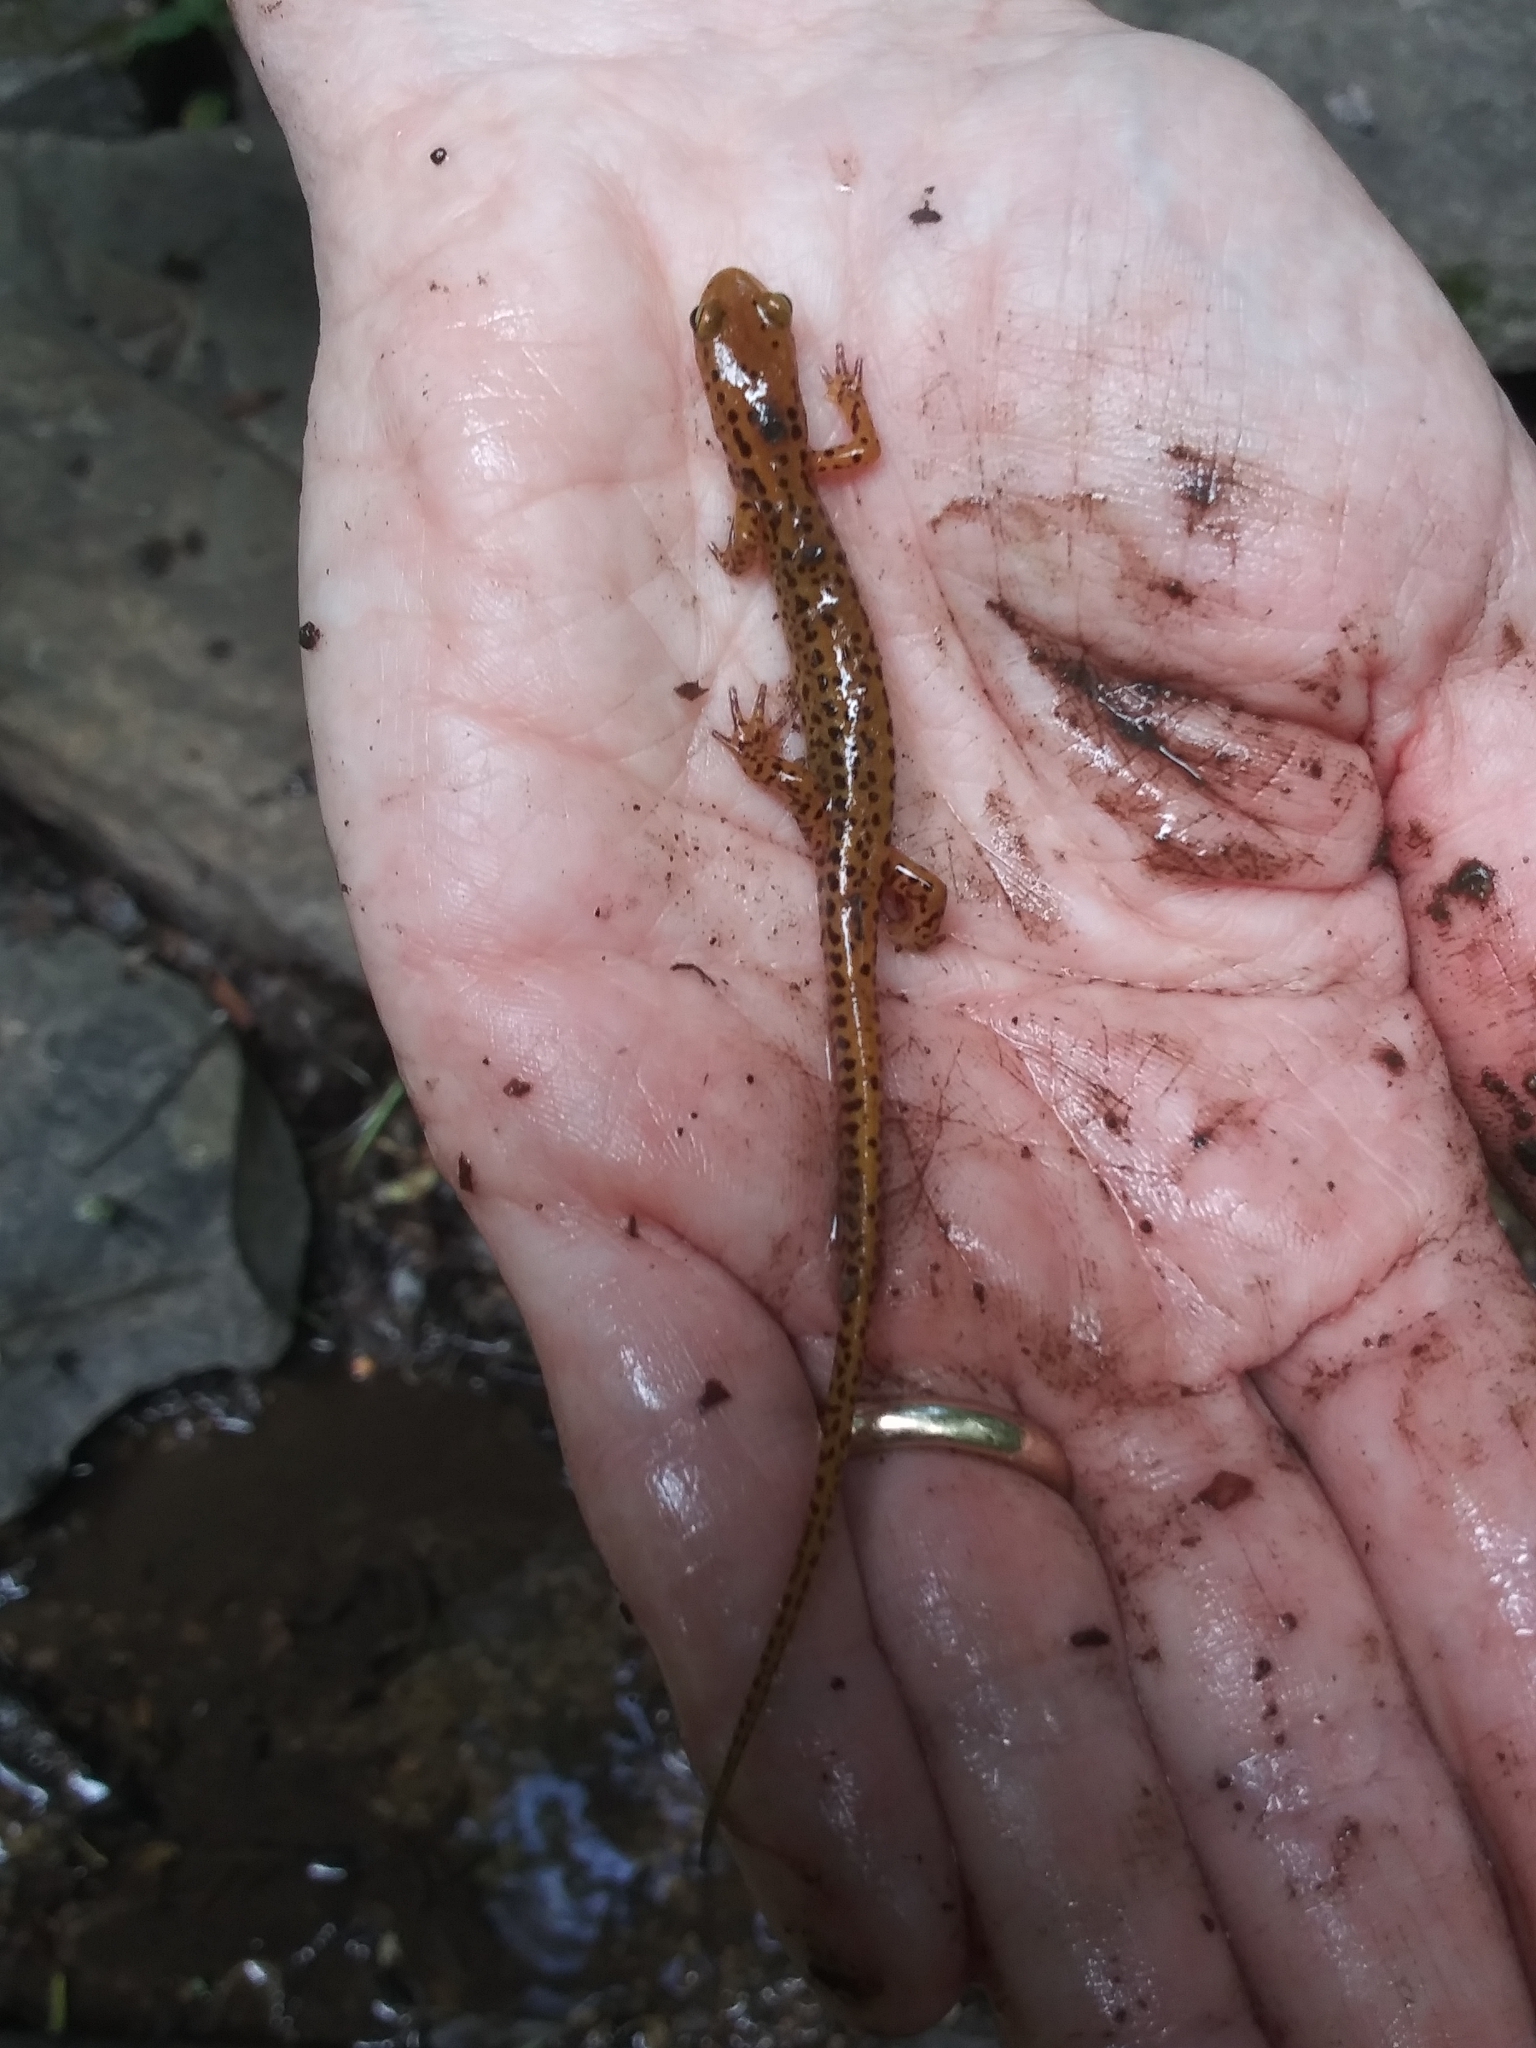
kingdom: Animalia
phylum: Chordata
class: Amphibia
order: Caudata
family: Plethodontidae
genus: Eurycea
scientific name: Eurycea longicauda
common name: Long-tailed salamander
